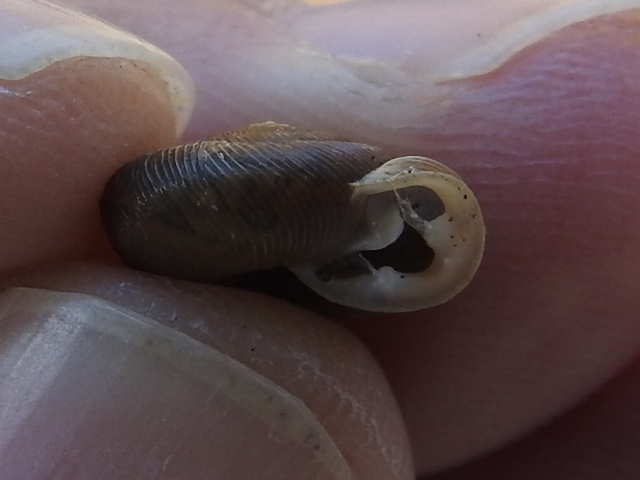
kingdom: Animalia
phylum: Mollusca
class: Gastropoda
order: Stylommatophora
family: Polygyridae
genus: Triodopsis
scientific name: Triodopsis hopetonensis
